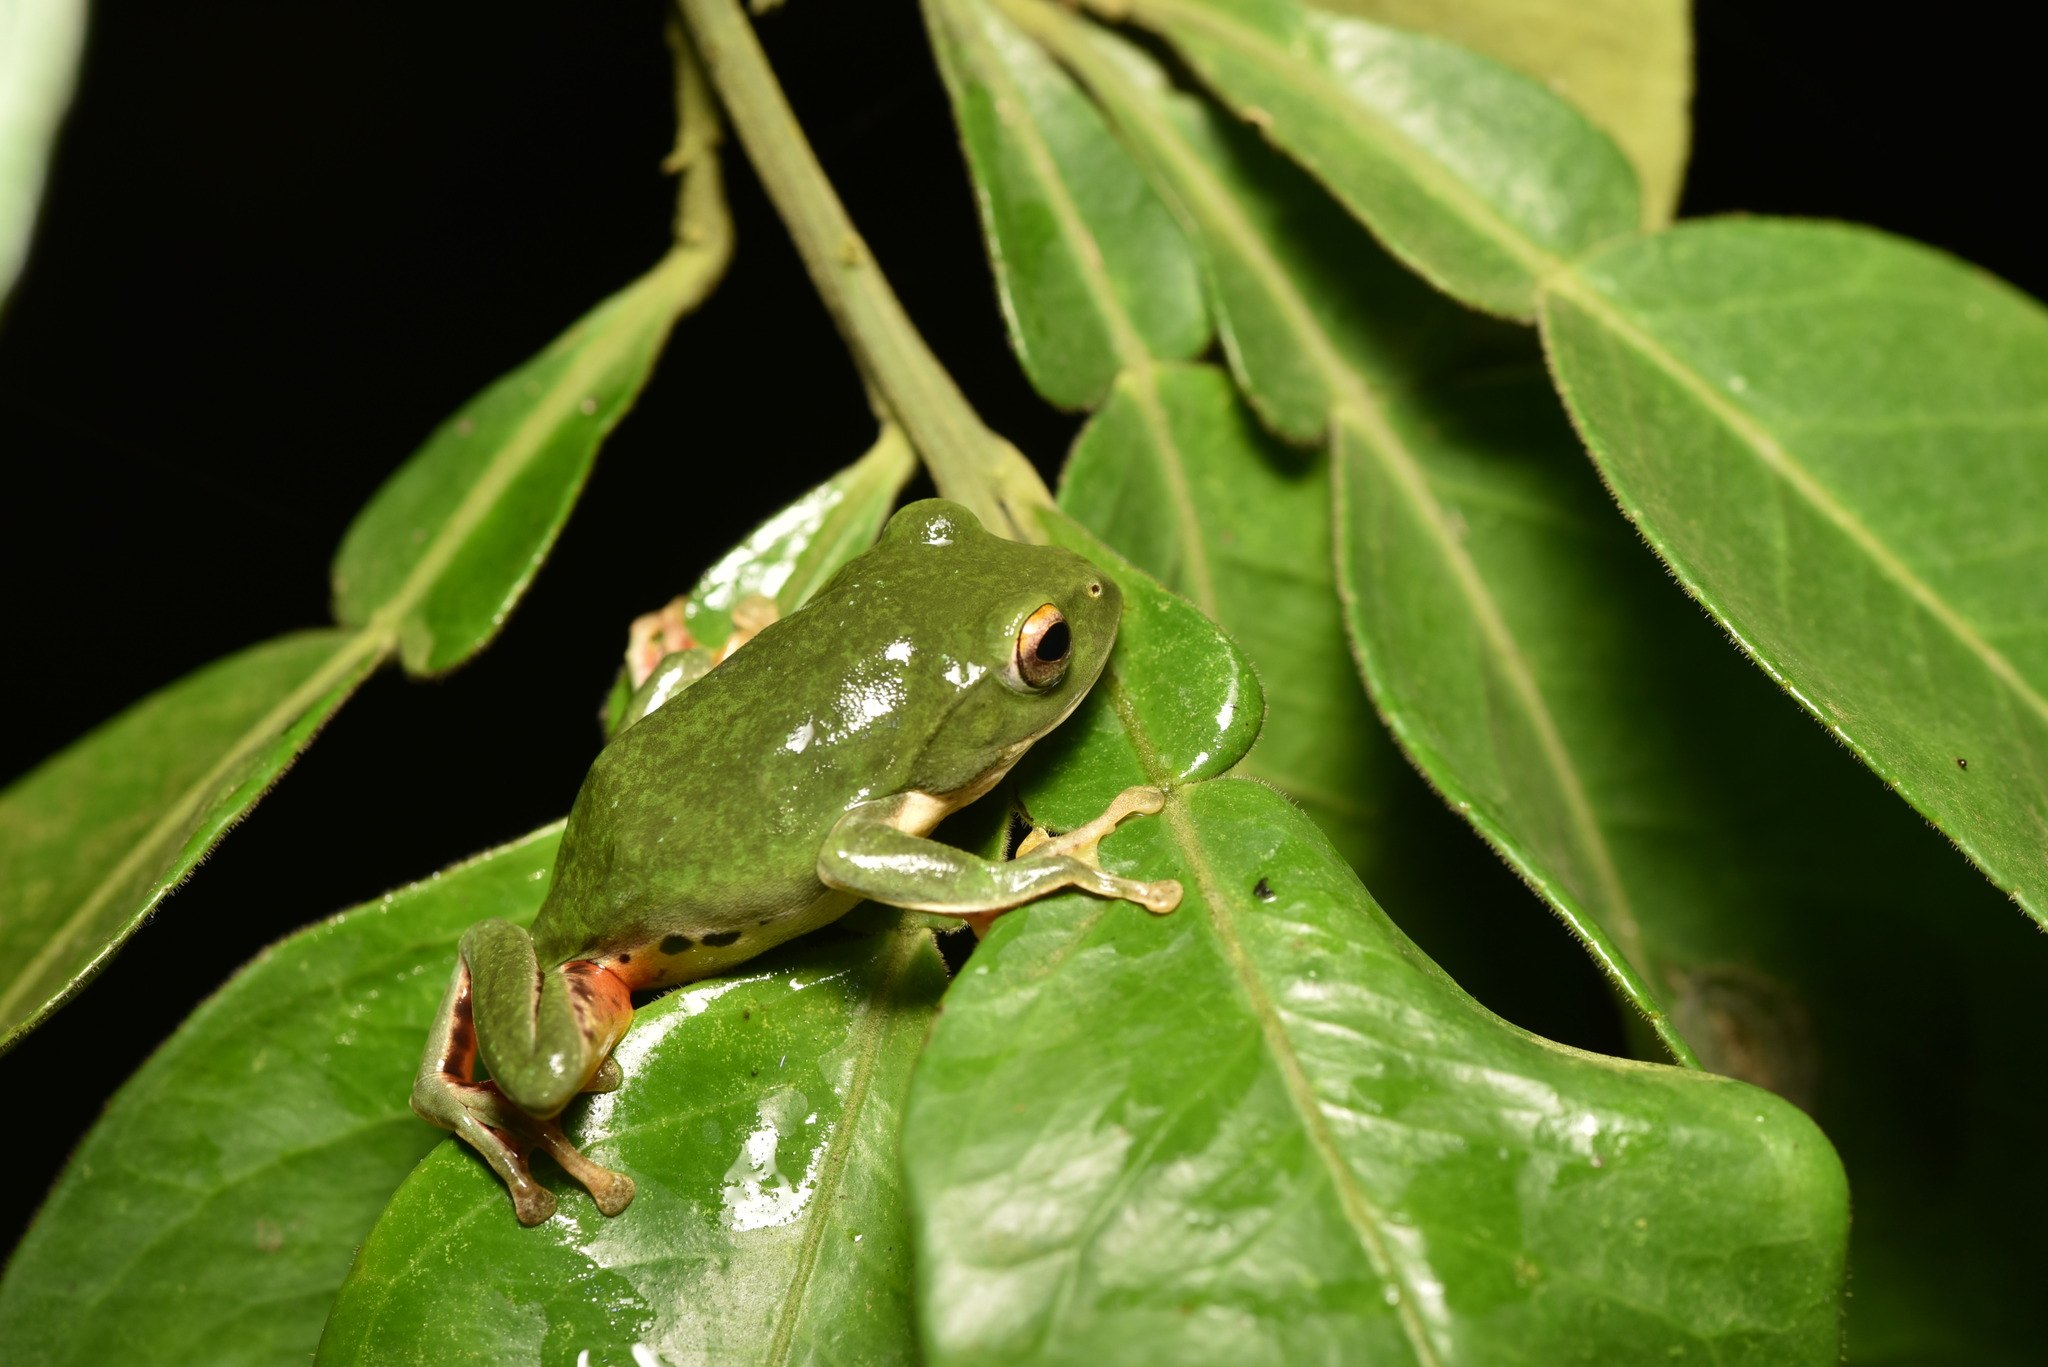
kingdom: Animalia
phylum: Chordata
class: Amphibia
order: Anura
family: Rhacophoridae
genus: Zhangixalus
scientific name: Zhangixalus moltrechti
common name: Moltrecht's treefrog
